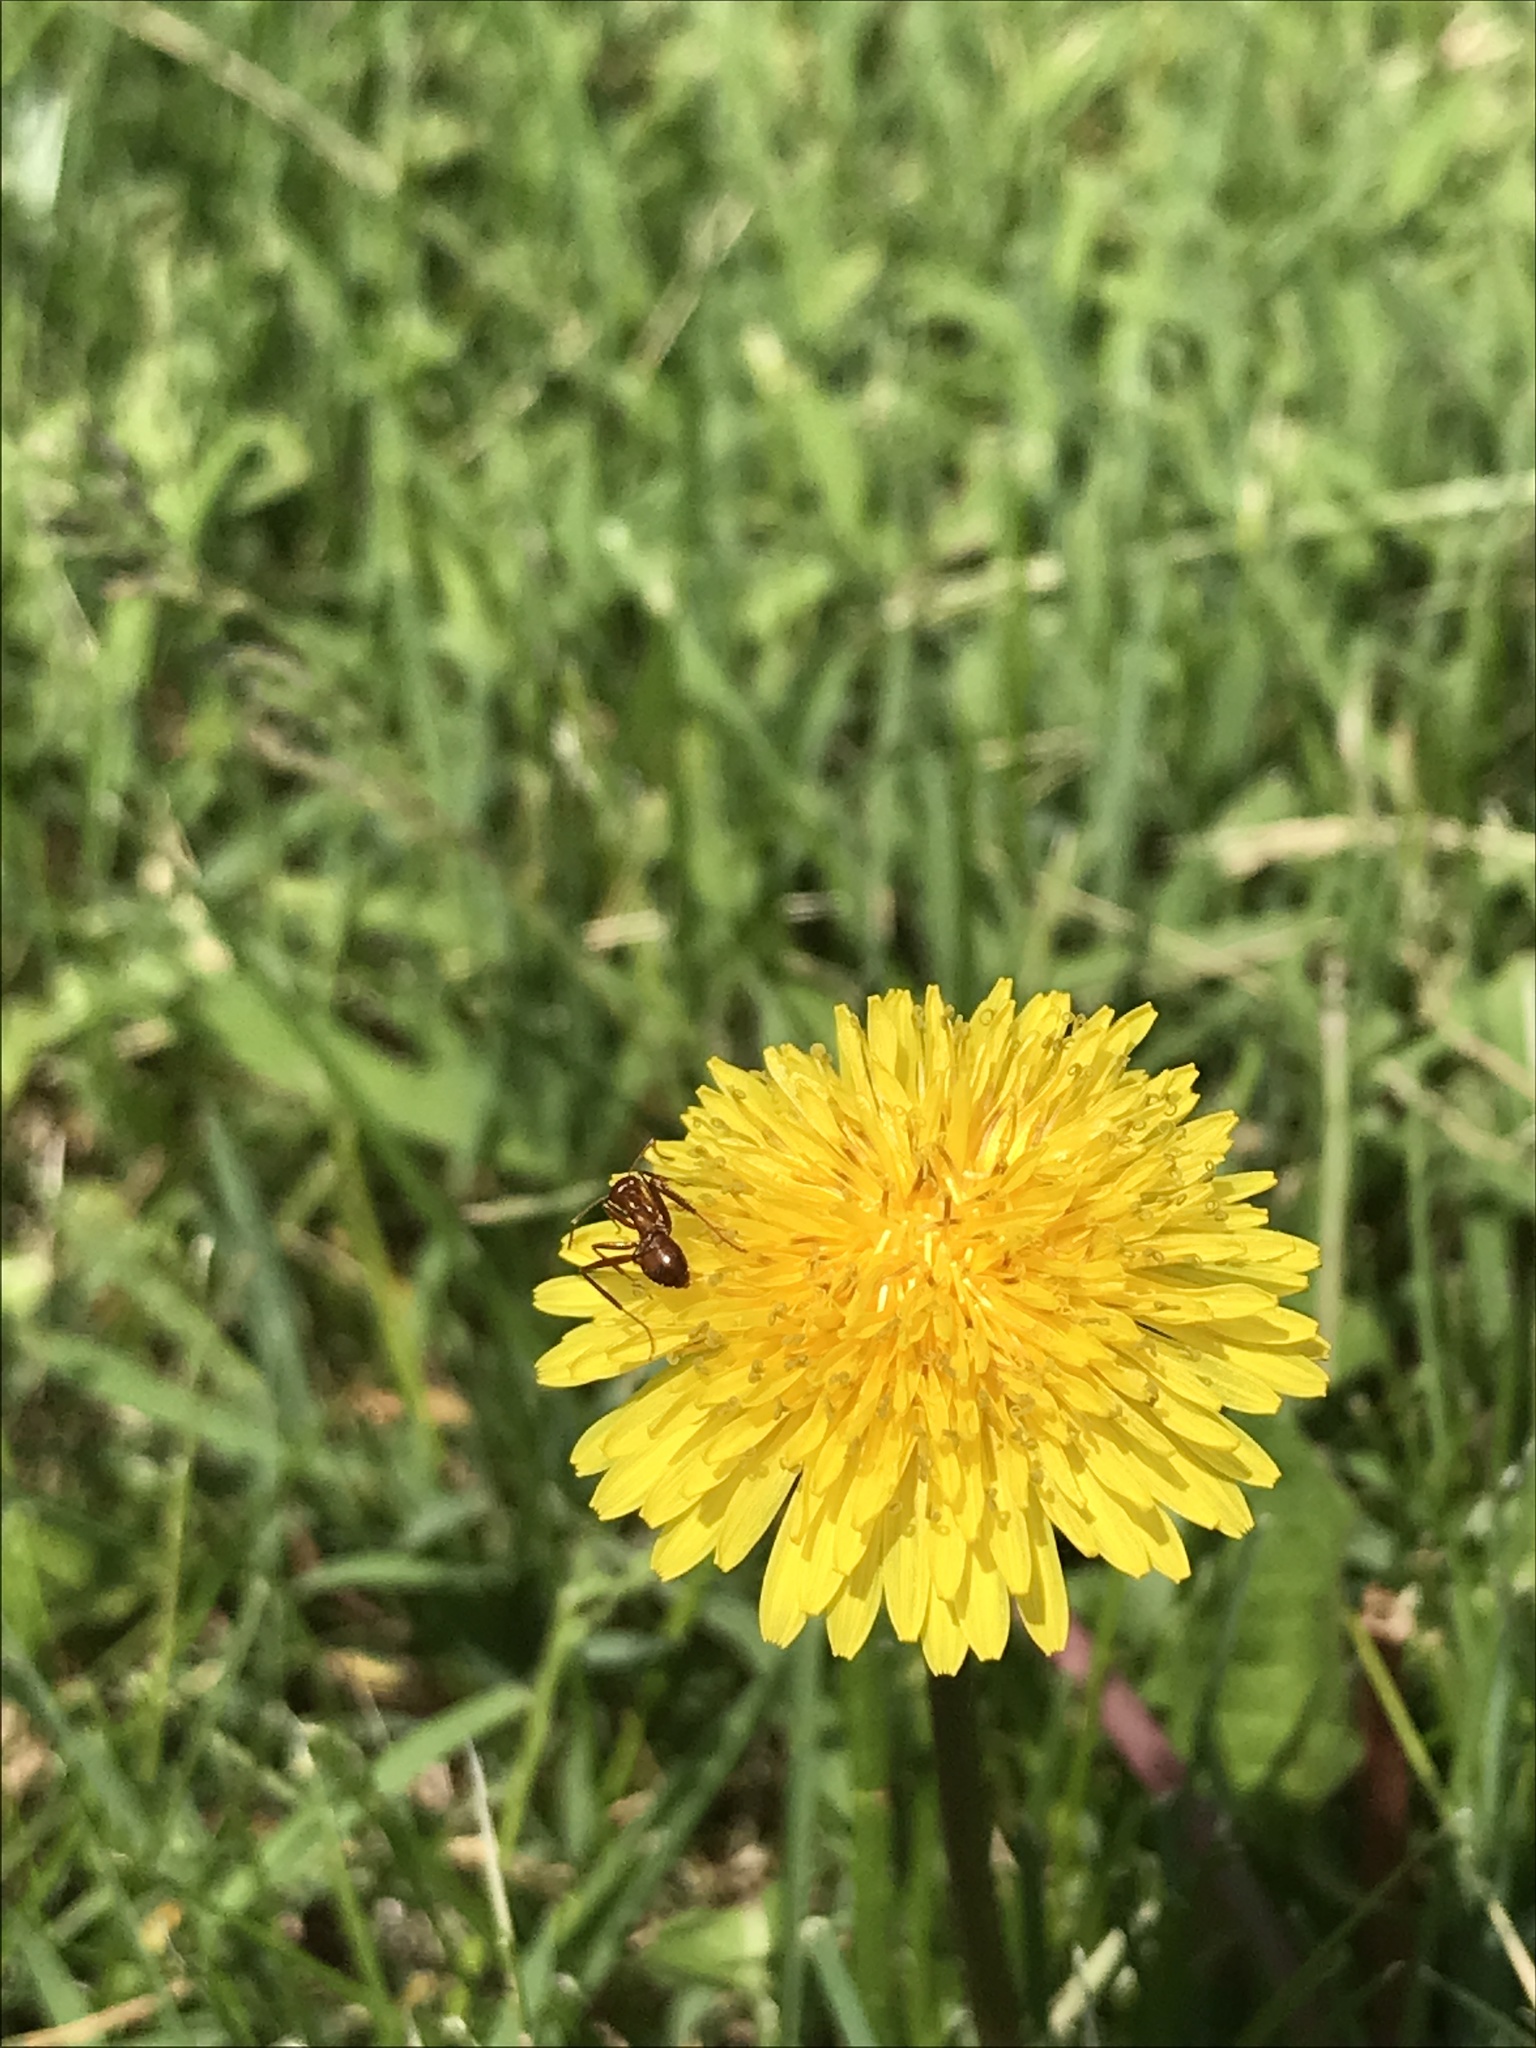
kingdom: Animalia
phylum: Arthropoda
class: Insecta
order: Hymenoptera
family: Formicidae
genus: Formica
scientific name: Formica
